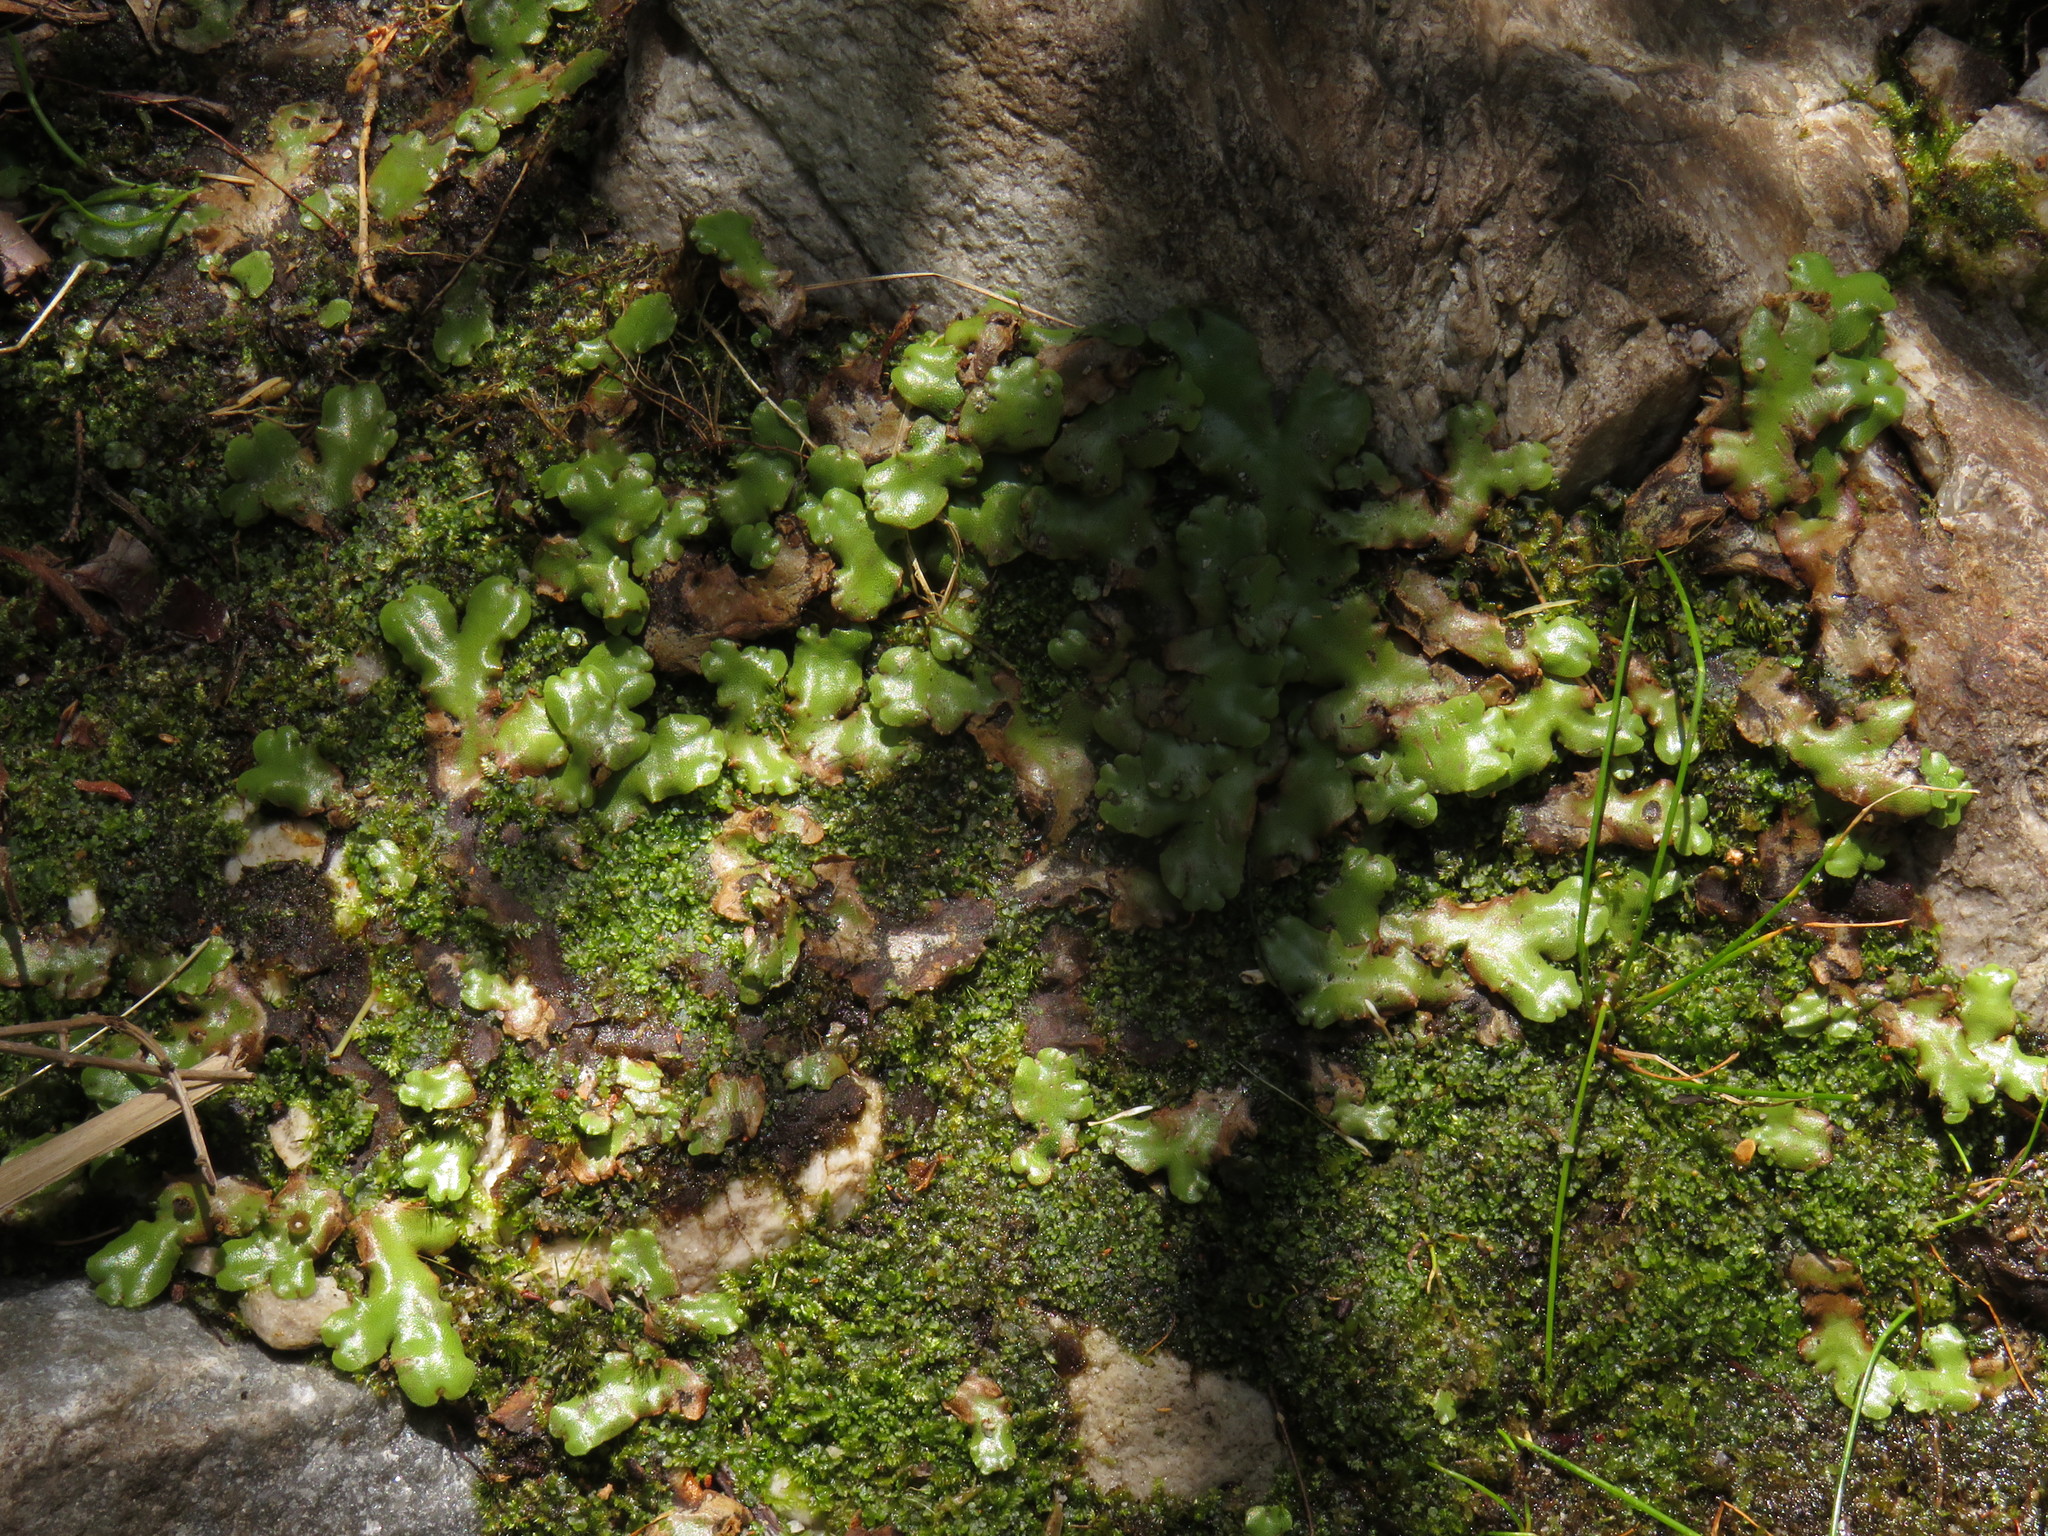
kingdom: Plantae
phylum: Marchantiophyta
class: Marchantiopsida
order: Marchantiales
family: Marchantiaceae
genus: Marchantia
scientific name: Marchantia berteroana
